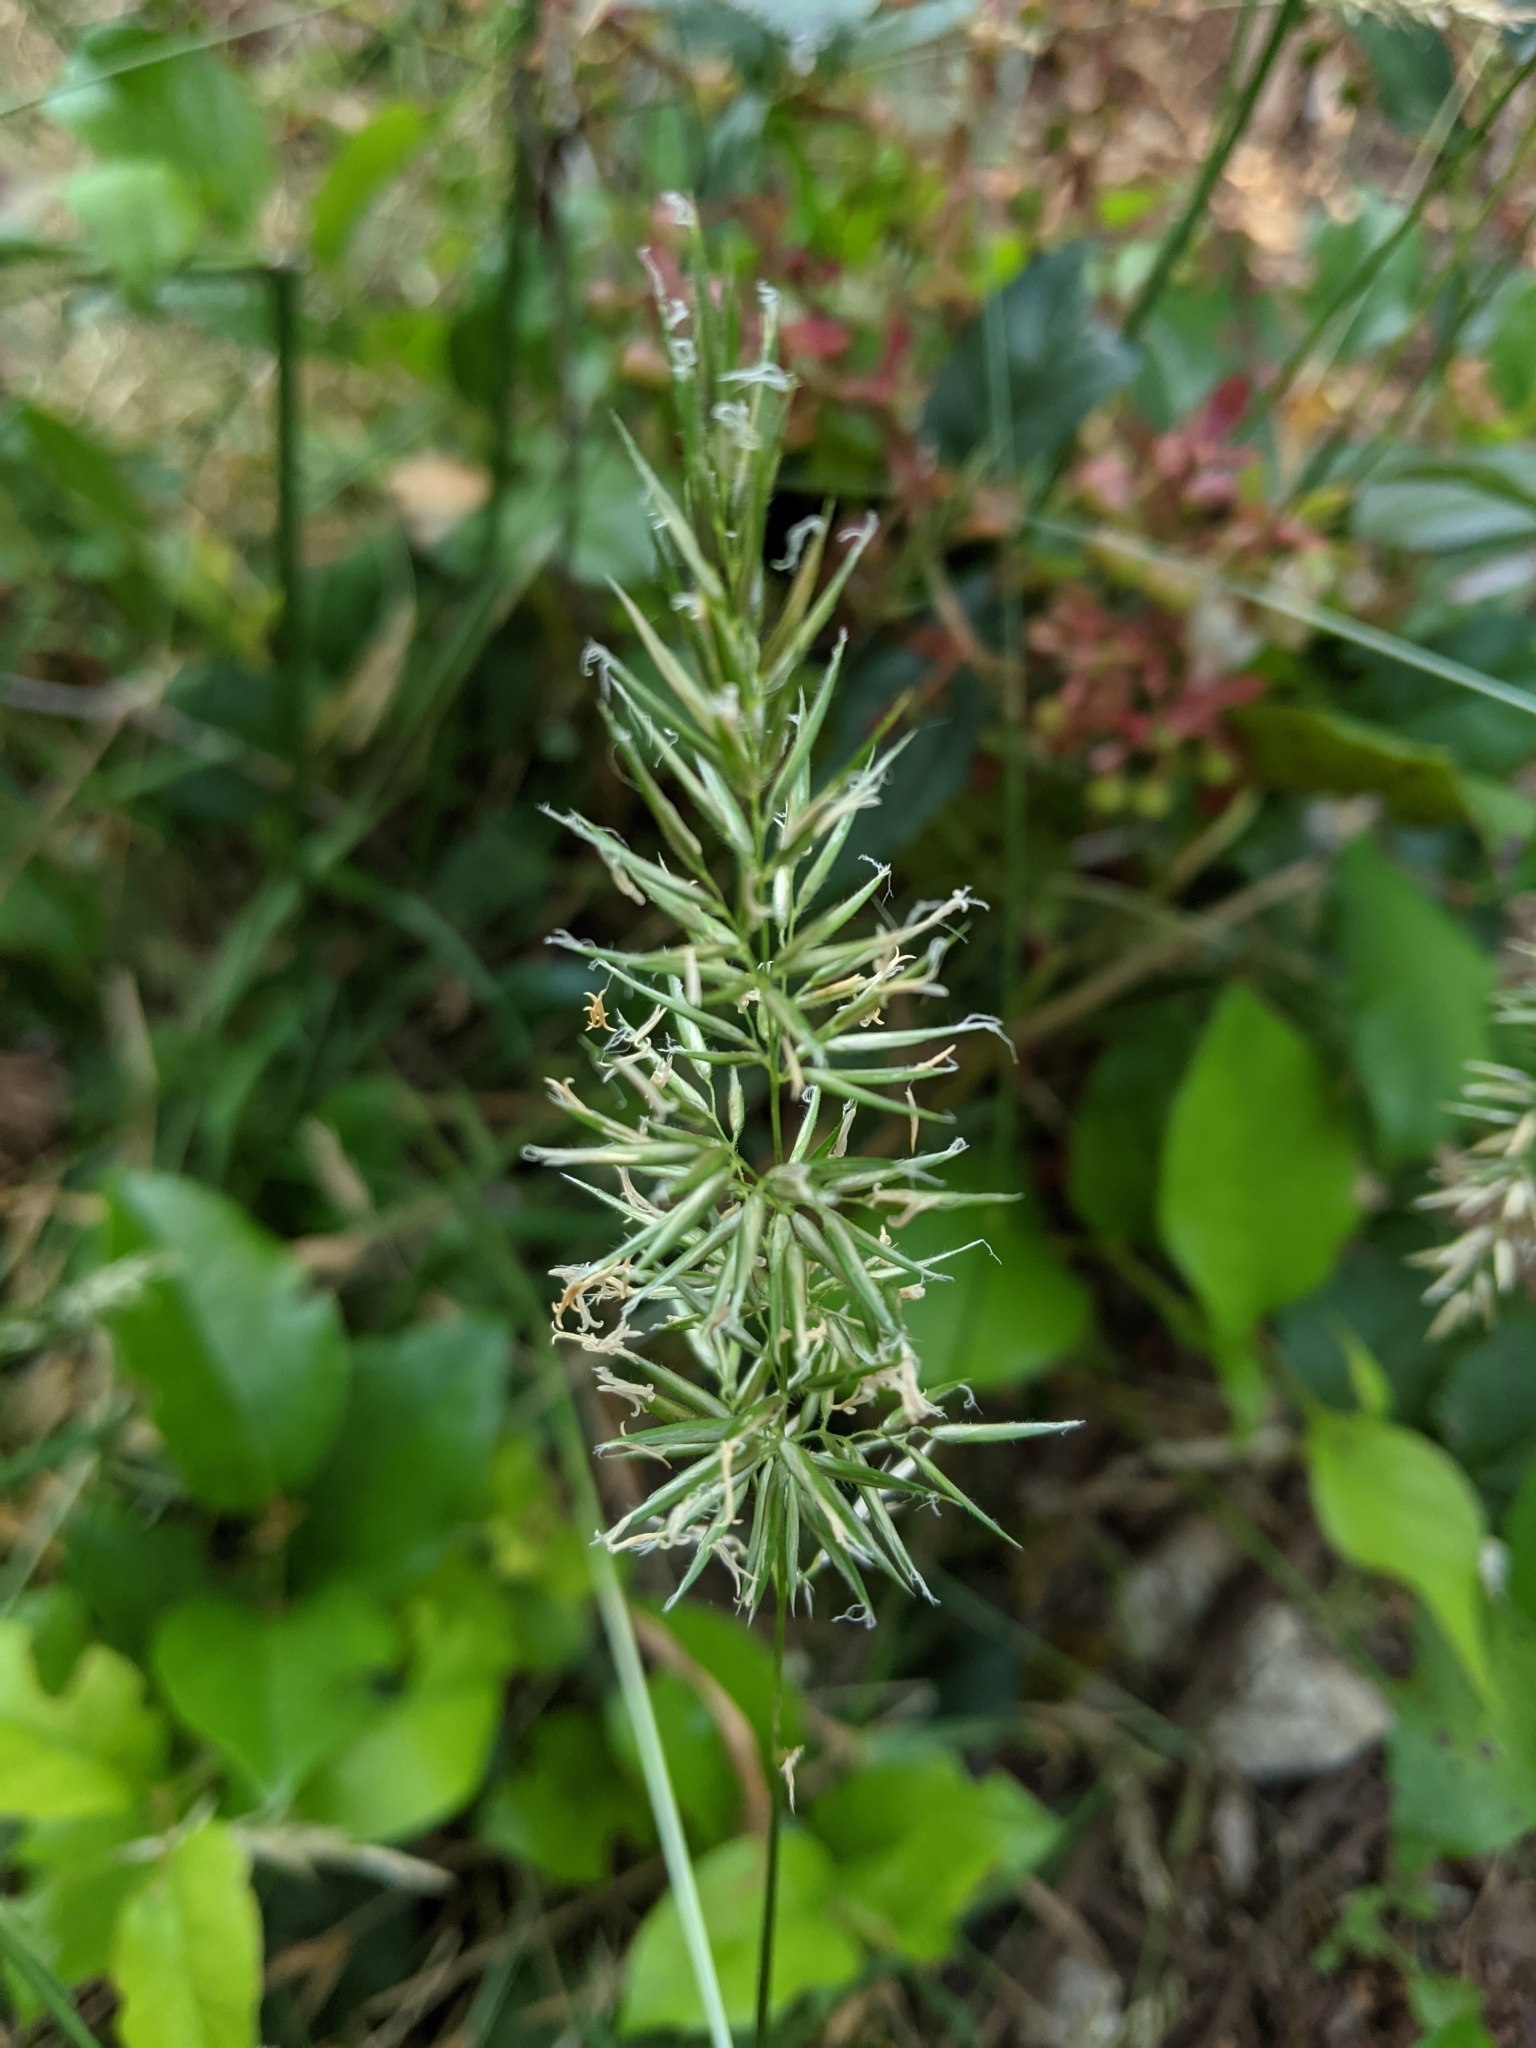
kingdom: Plantae
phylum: Tracheophyta
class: Liliopsida
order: Poales
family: Poaceae
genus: Anthoxanthum
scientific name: Anthoxanthum odoratum
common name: Sweet vernalgrass
